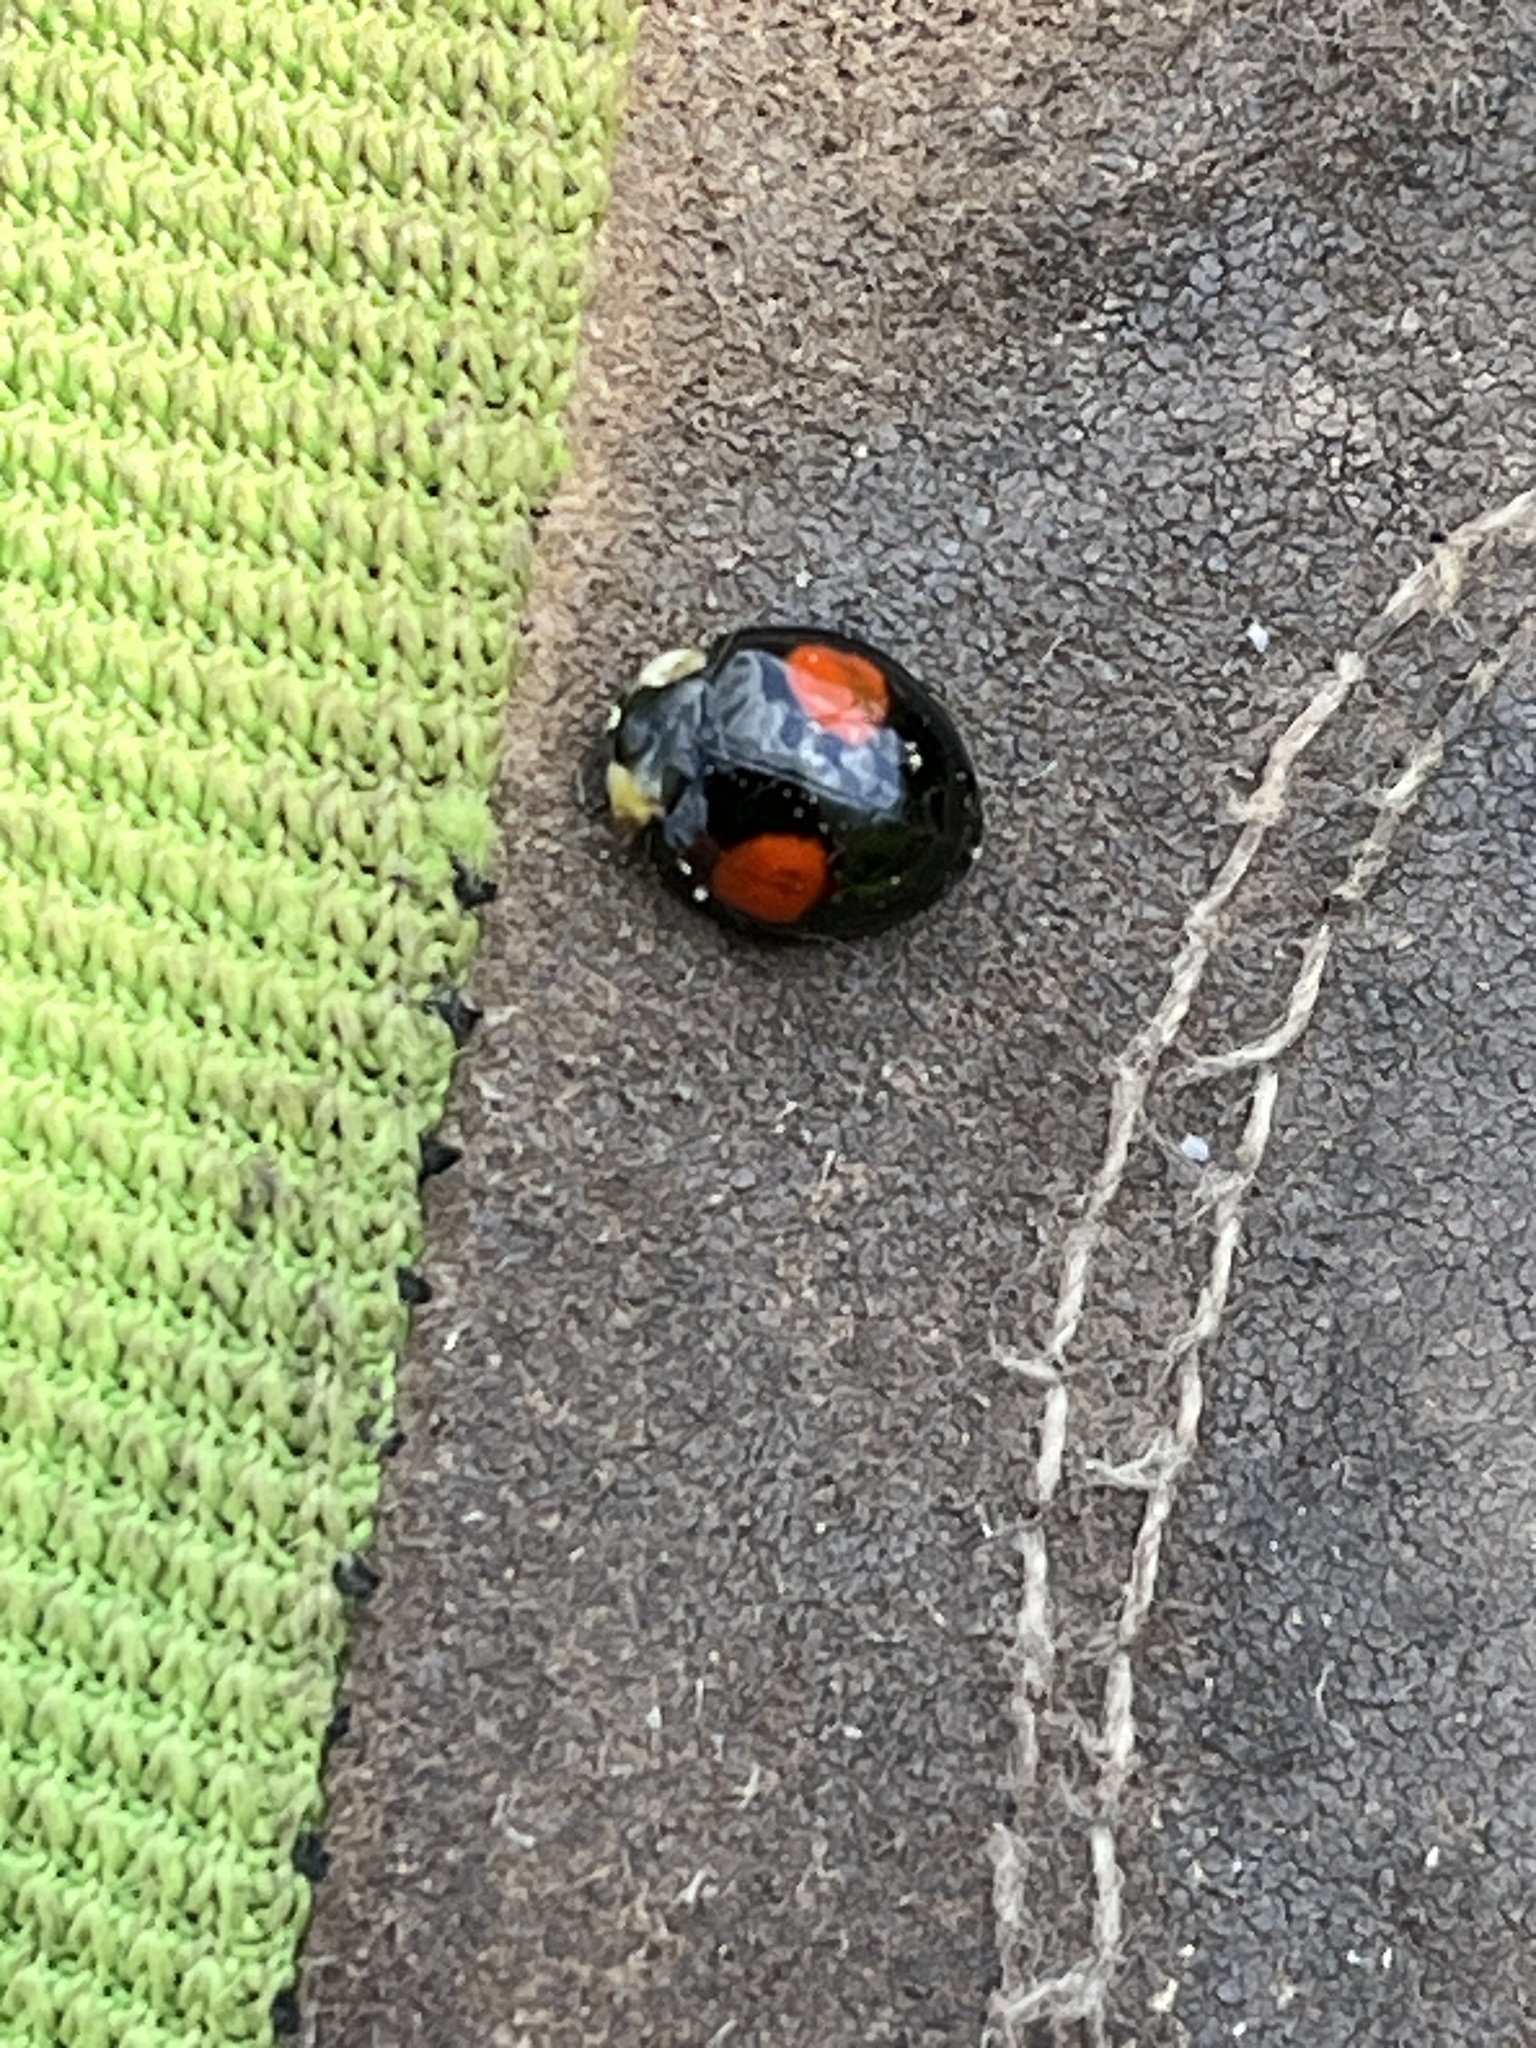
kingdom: Animalia
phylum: Arthropoda
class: Insecta
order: Coleoptera
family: Coccinellidae
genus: Harmonia
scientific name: Harmonia axyridis
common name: Harlequin ladybird
